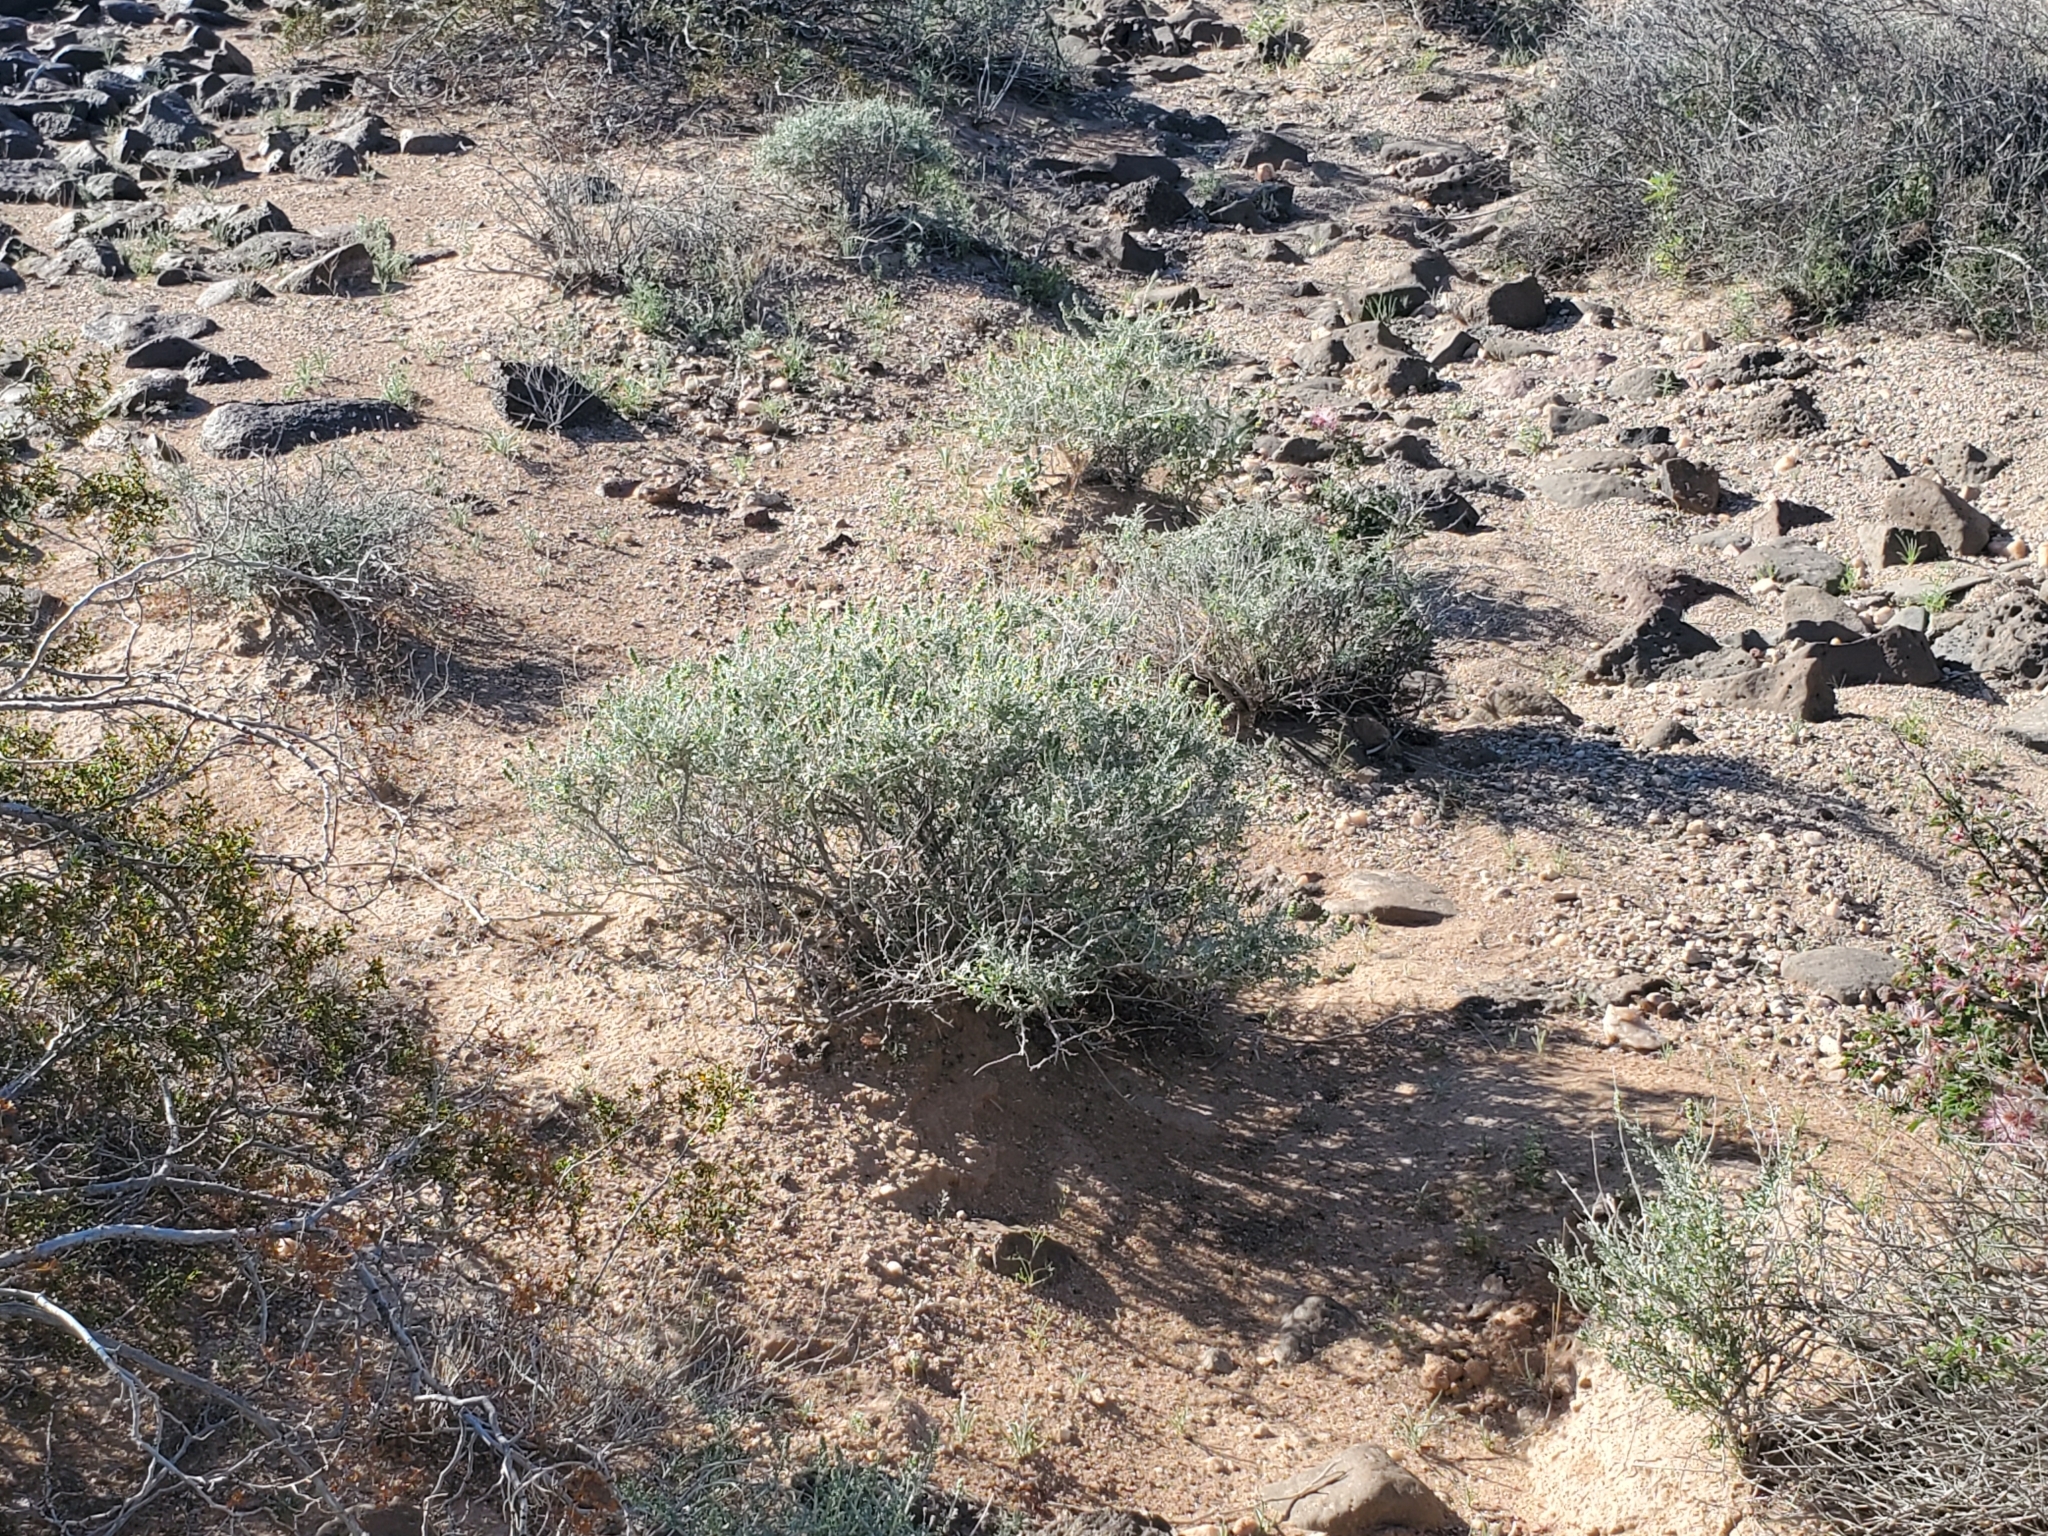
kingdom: Plantae
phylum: Tracheophyta
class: Magnoliopsida
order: Asterales
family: Asteraceae
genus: Ambrosia
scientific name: Ambrosia dumosa
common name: Bur-sage
